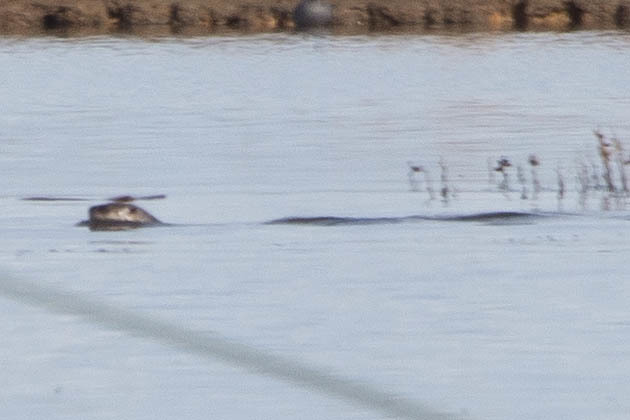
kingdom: Animalia
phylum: Chordata
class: Mammalia
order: Carnivora
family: Mustelidae
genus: Lontra
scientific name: Lontra canadensis
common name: North american river otter
